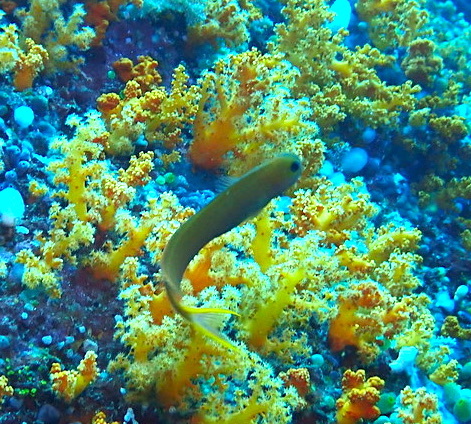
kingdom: Animalia
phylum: Chordata
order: Perciformes
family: Blenniidae
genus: Ecsenius
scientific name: Ecsenius midas
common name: Golden blenny
